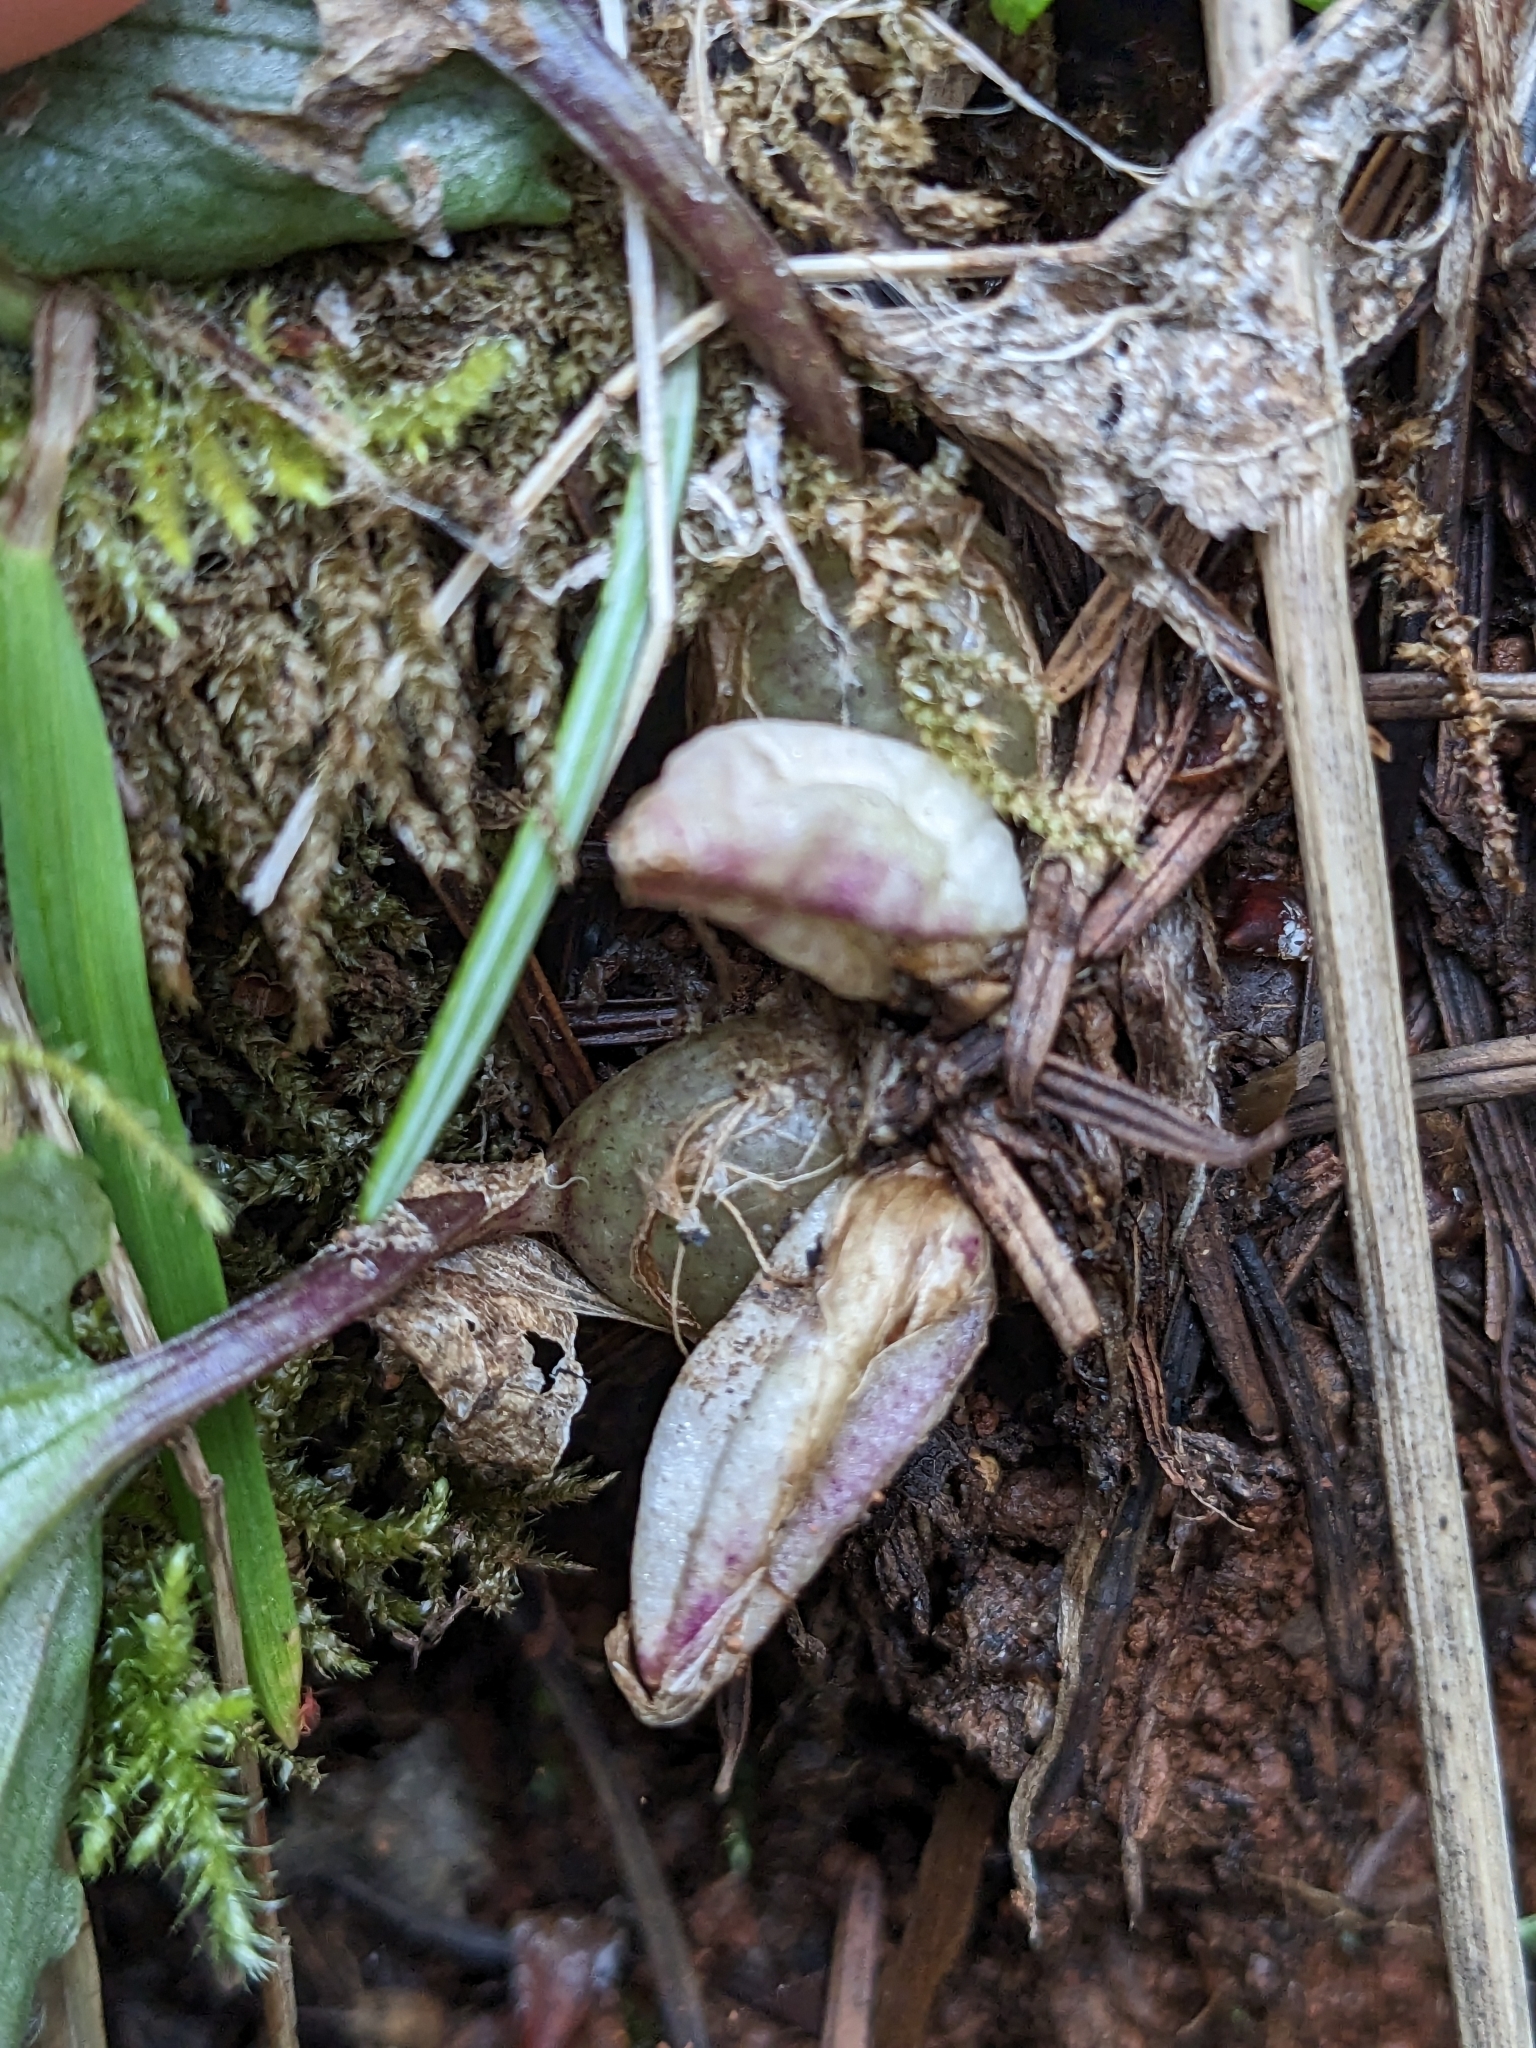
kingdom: Plantae
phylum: Tracheophyta
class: Liliopsida
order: Asparagales
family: Orchidaceae
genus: Calypso
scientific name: Calypso bulbosa
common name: Calypso
